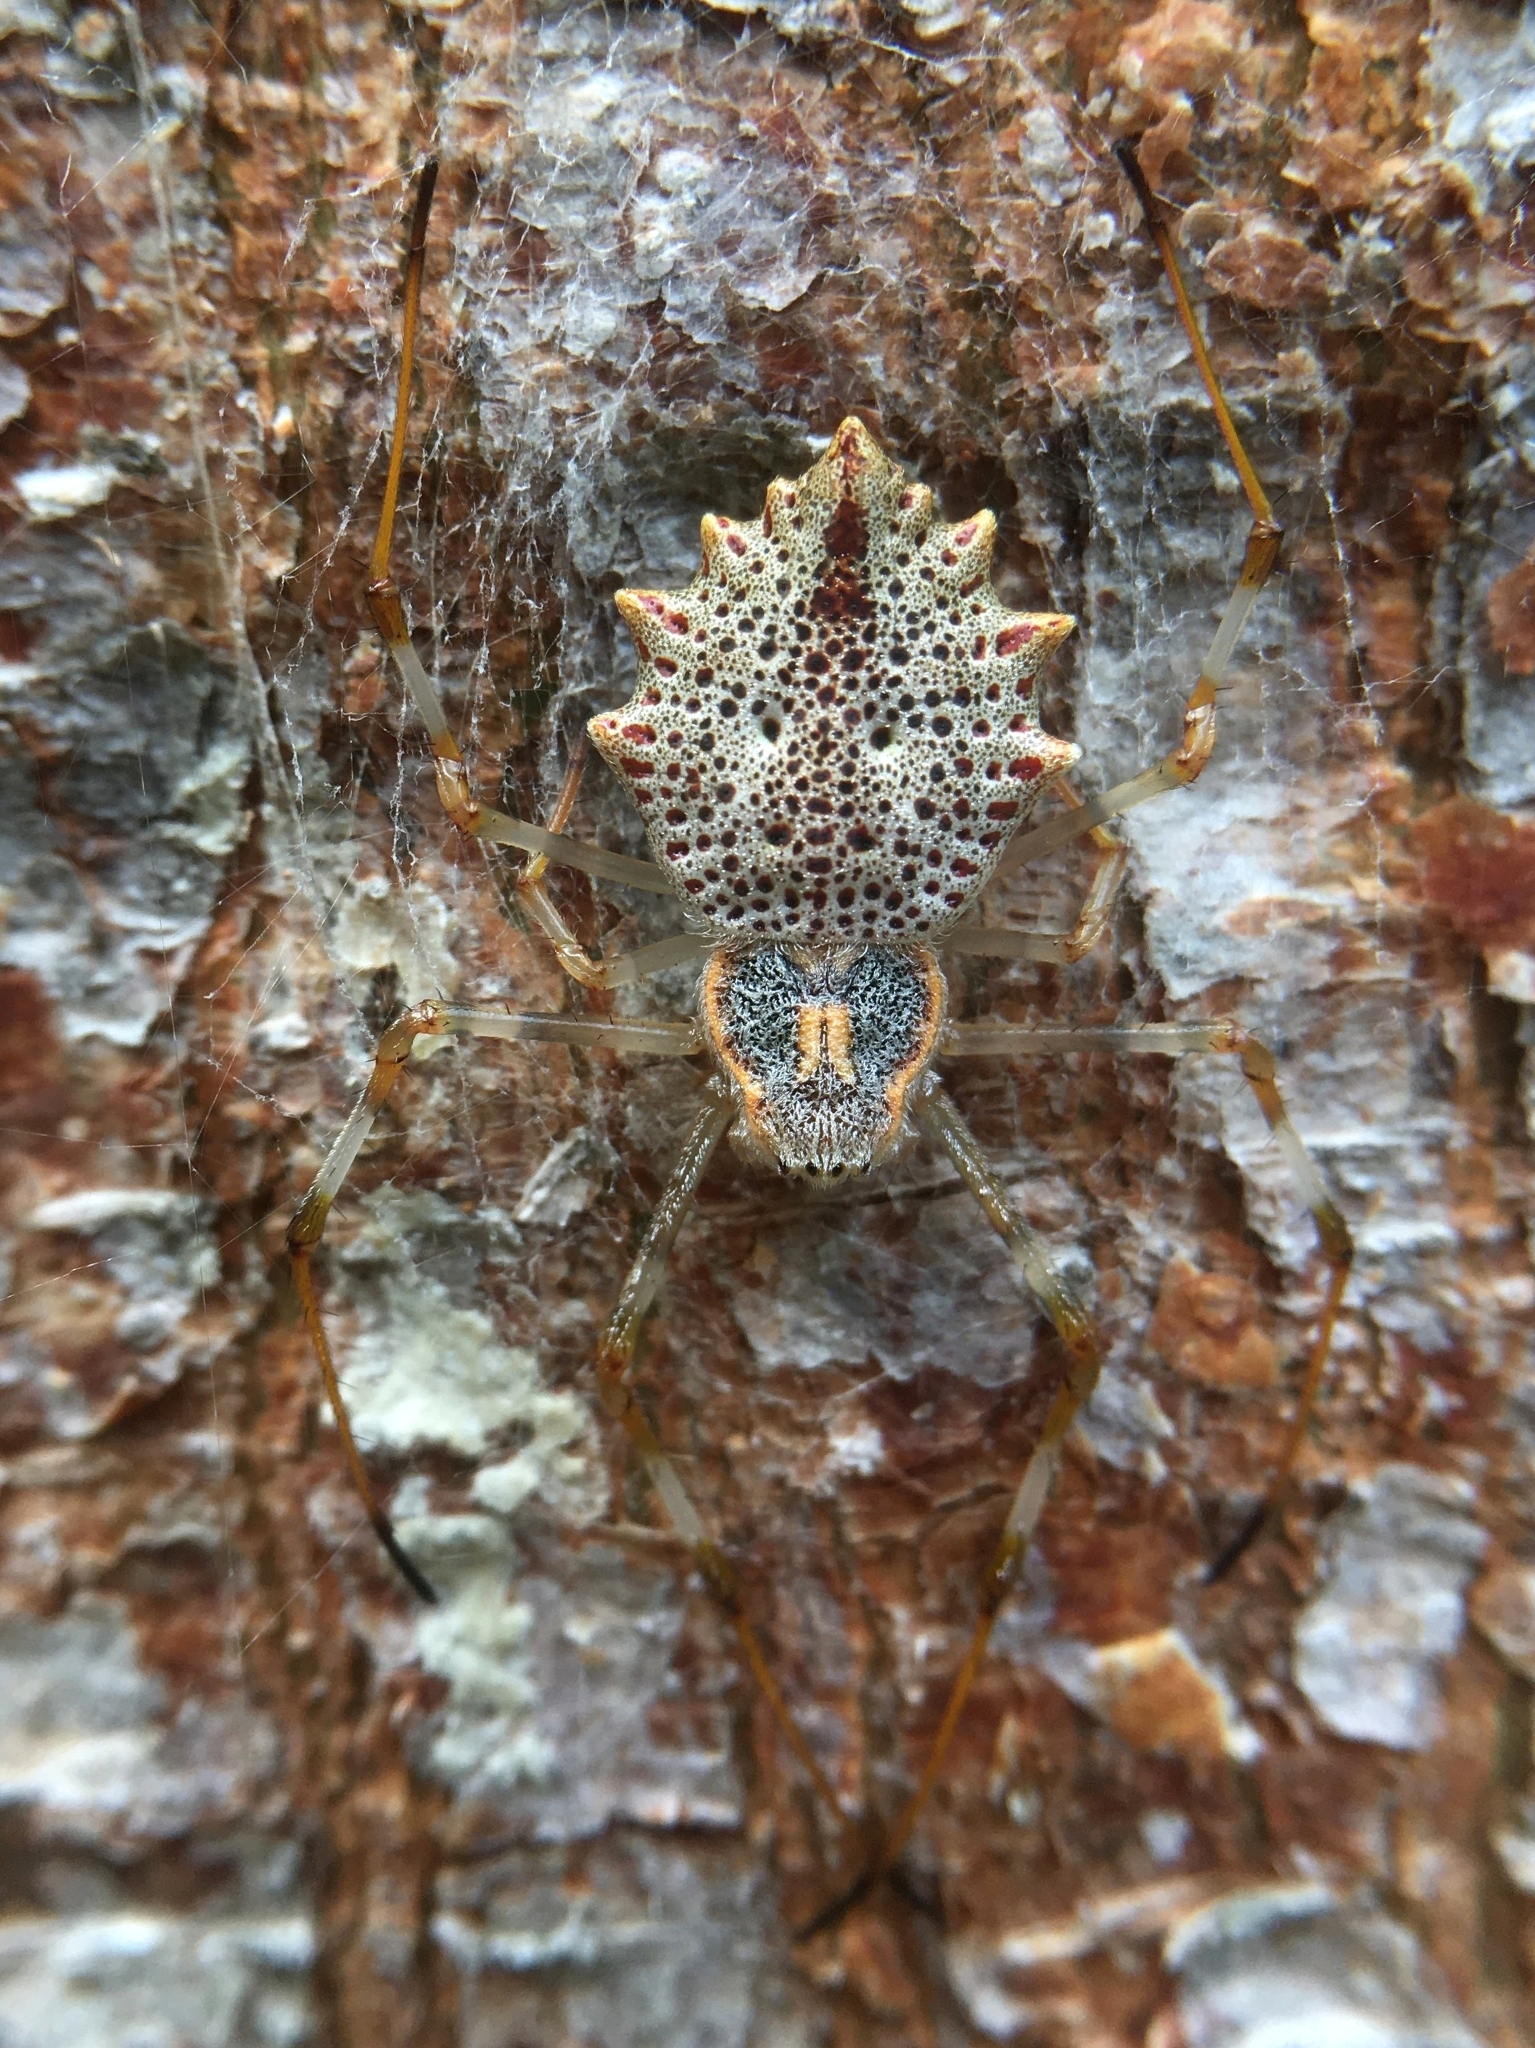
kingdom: Animalia
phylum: Arthropoda
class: Arachnida
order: Araneae
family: Araneidae
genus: Herennia
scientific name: Herennia multipuncta
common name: Spotted coin spider
